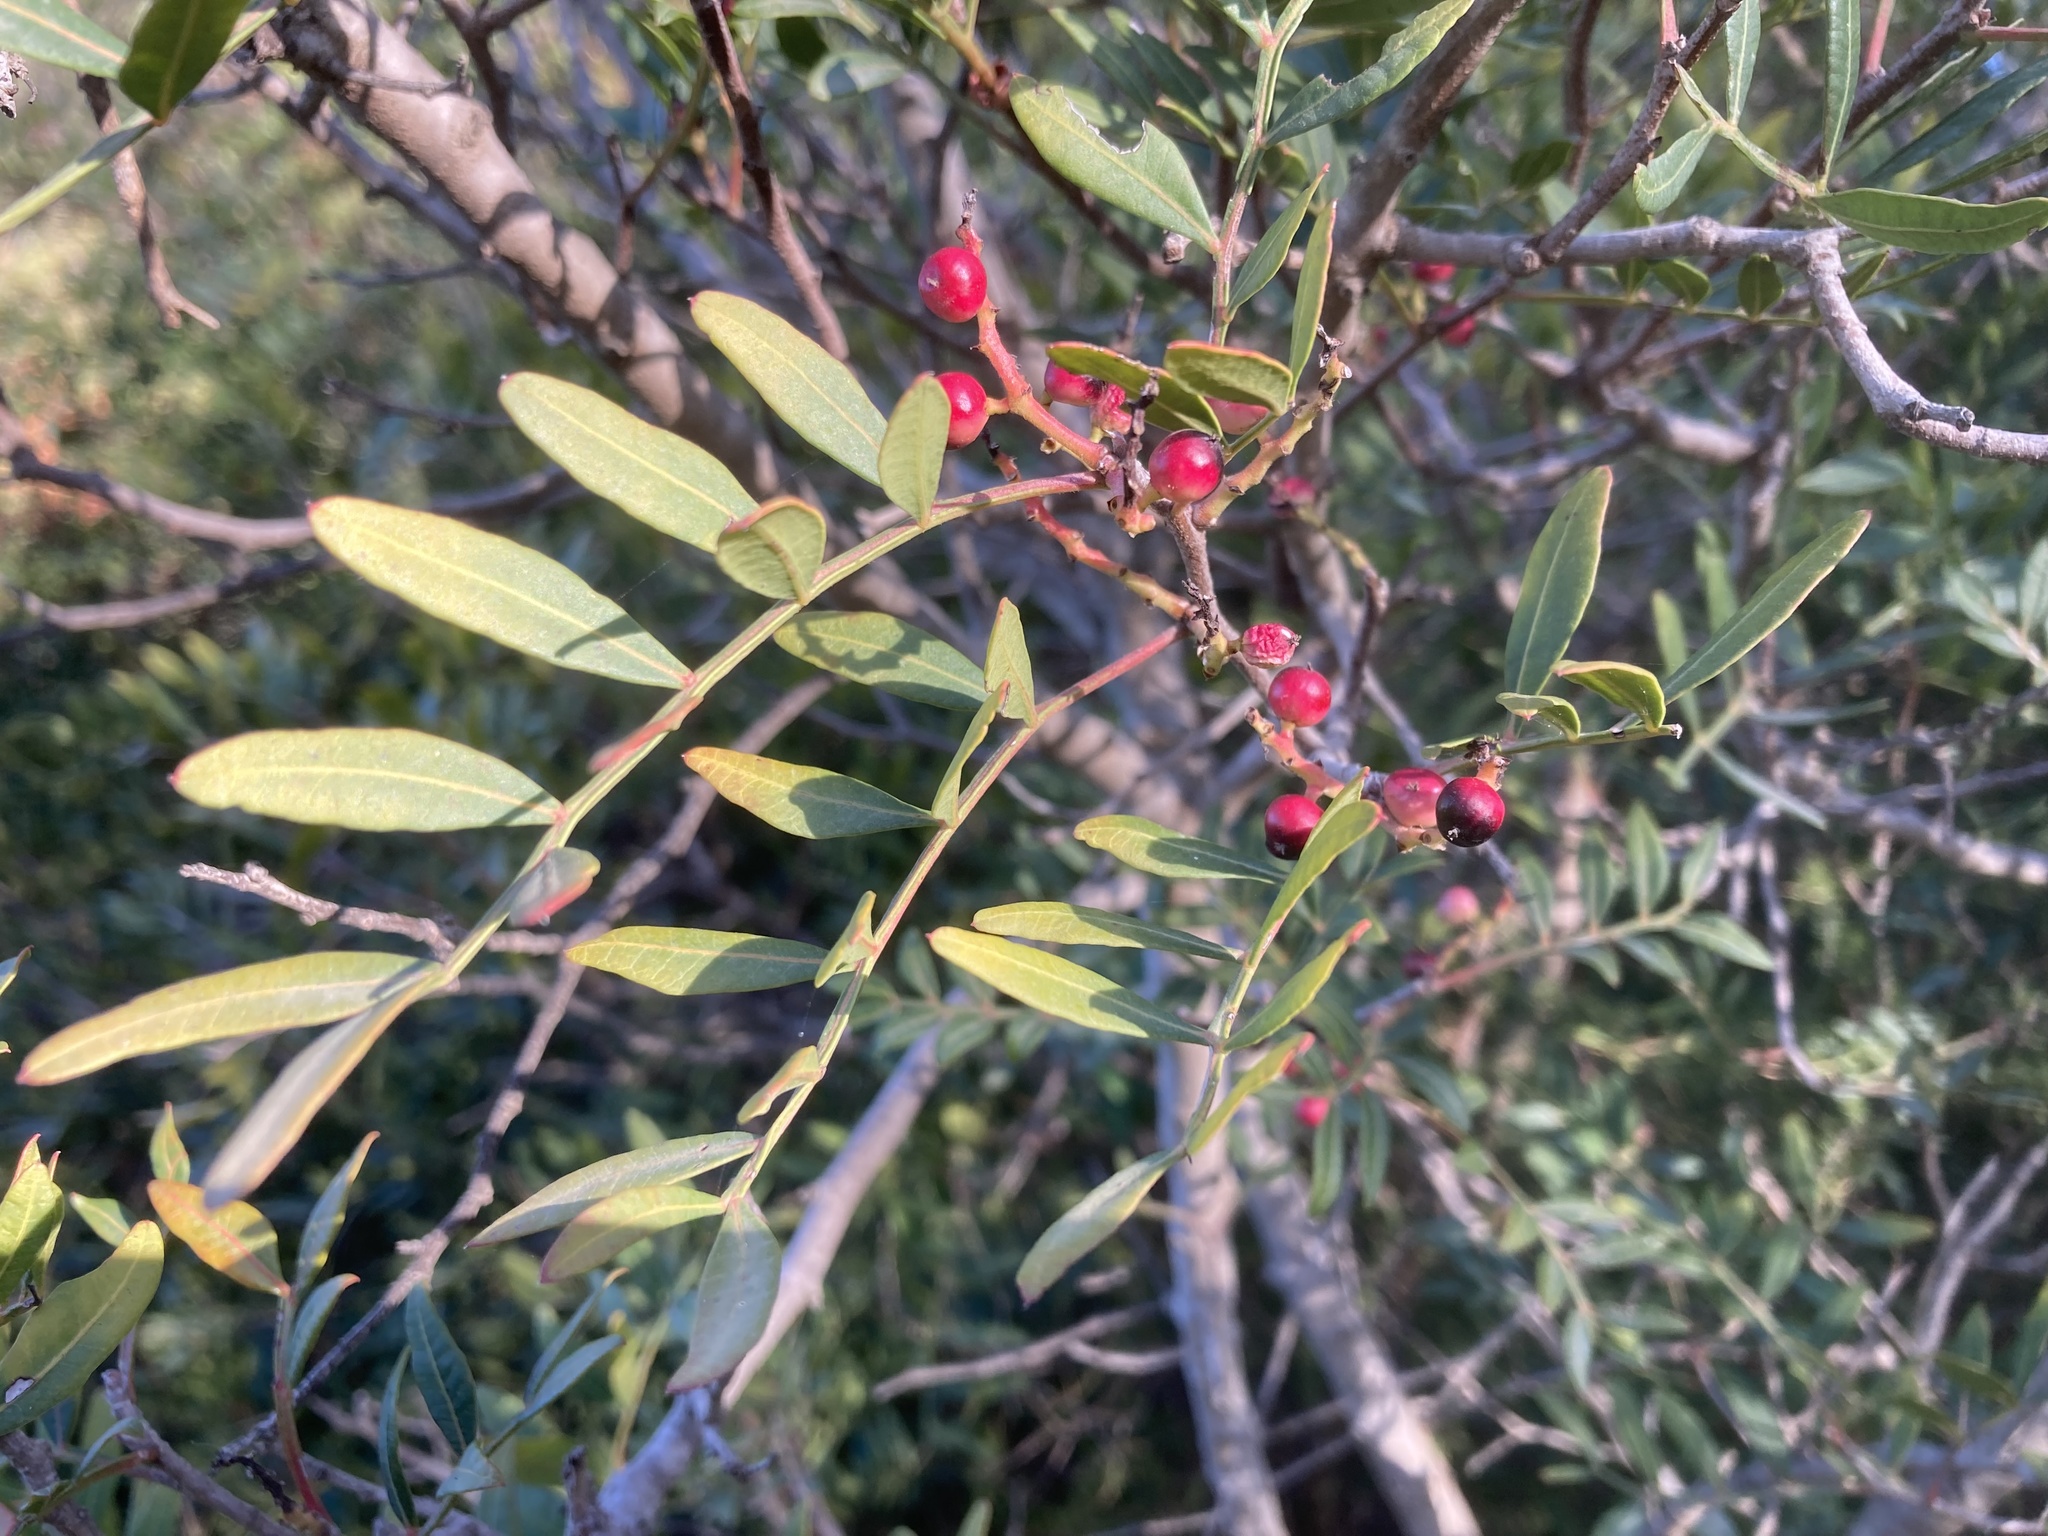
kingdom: Plantae
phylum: Tracheophyta
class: Magnoliopsida
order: Sapindales
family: Anacardiaceae
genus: Pistacia
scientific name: Pistacia lentiscus
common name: Lentisk
